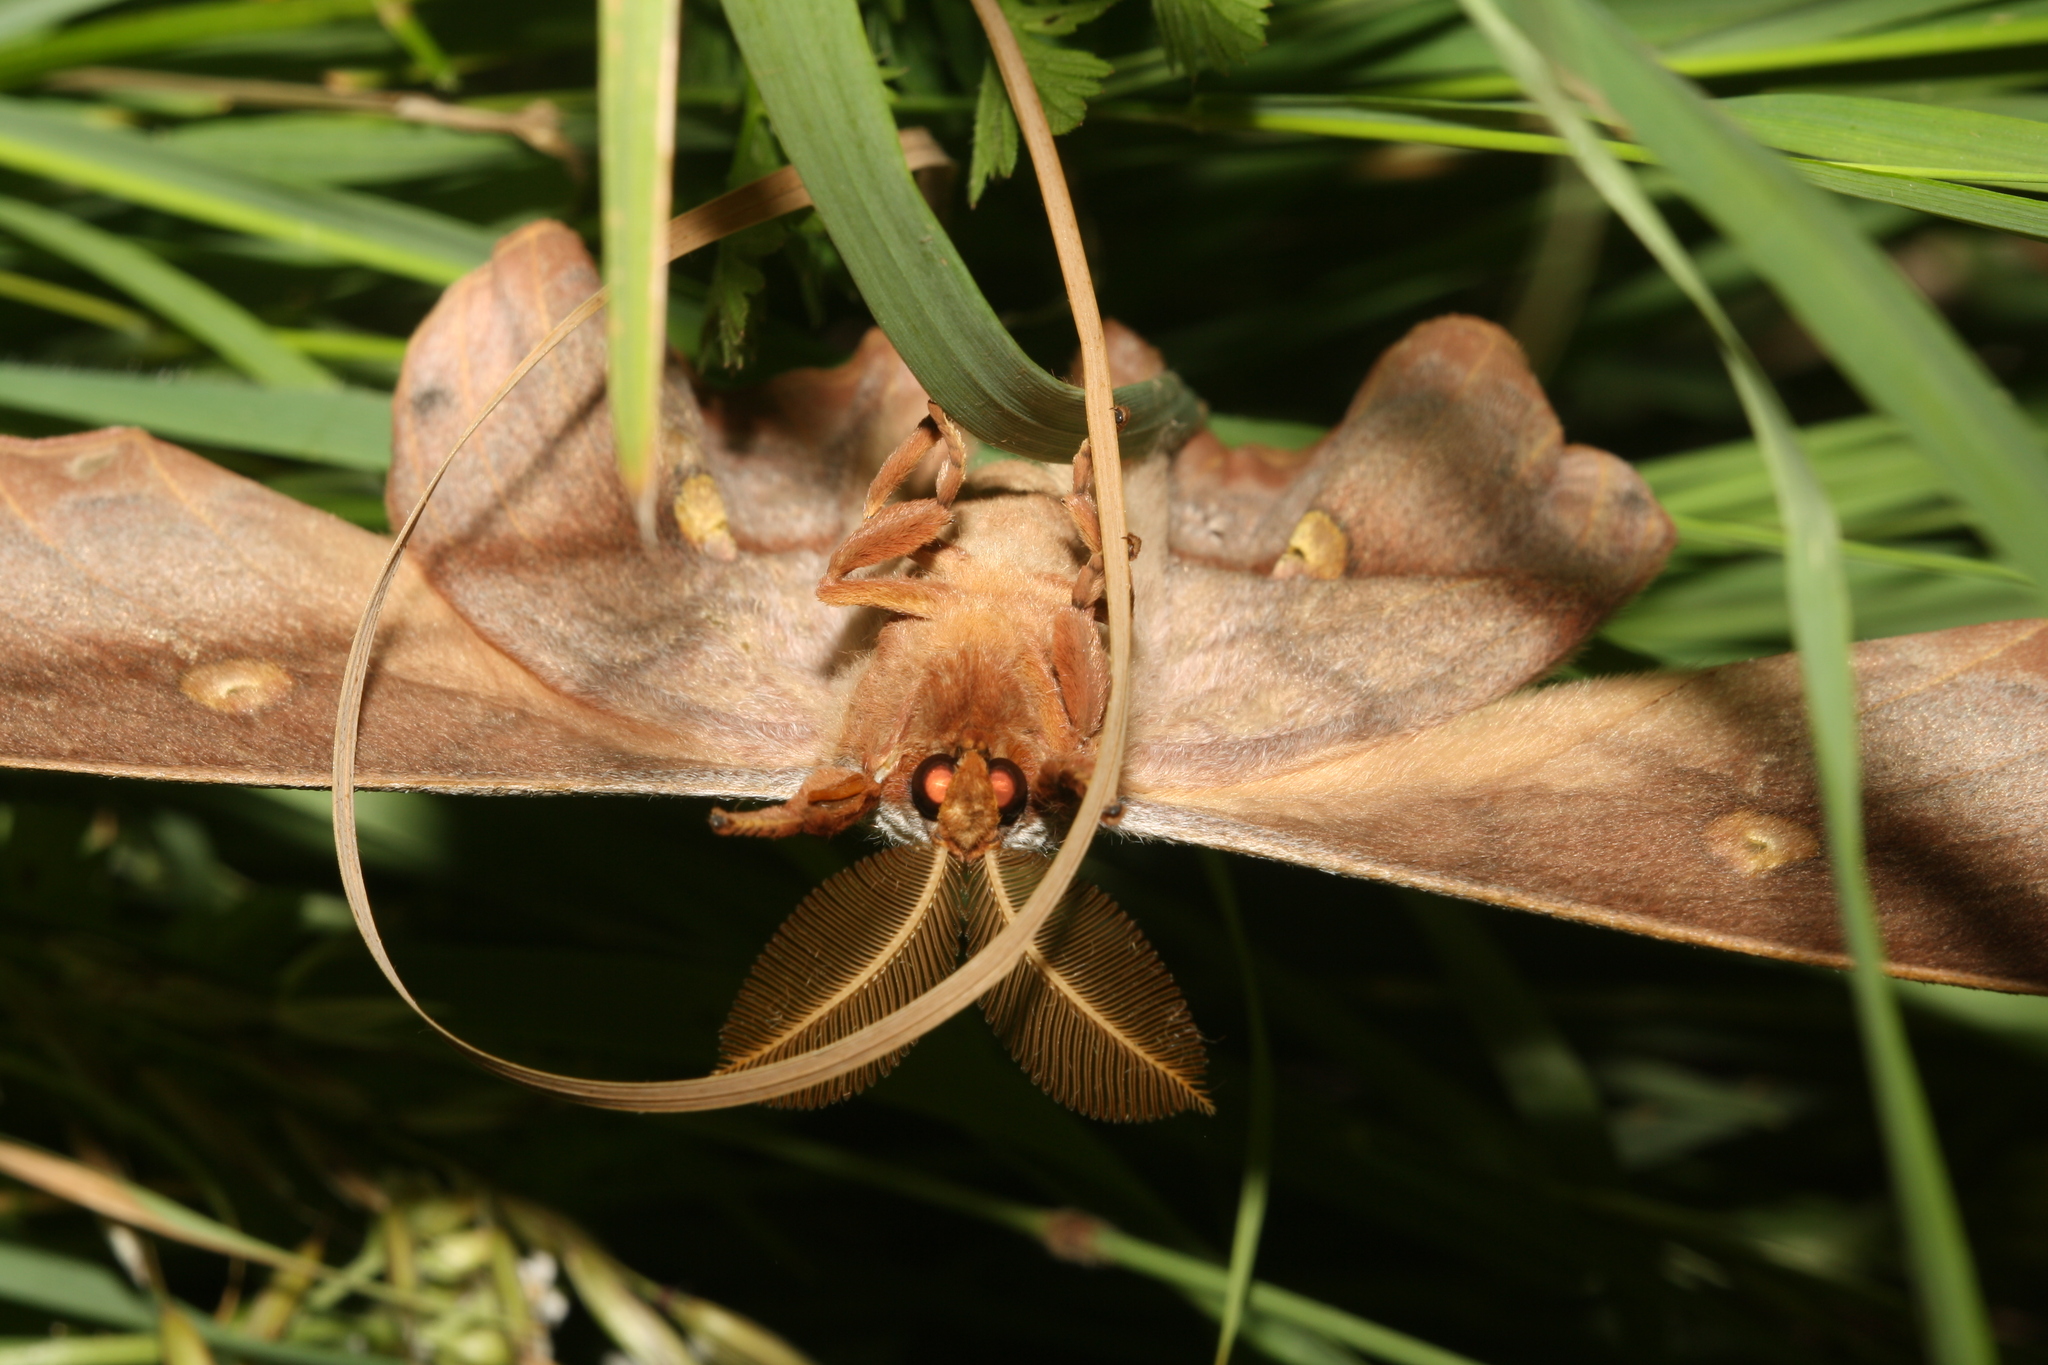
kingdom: Animalia
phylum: Arthropoda
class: Insecta
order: Lepidoptera
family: Saturniidae
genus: Antheraea
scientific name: Antheraea yamamai
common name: Japanese oak silk moth
